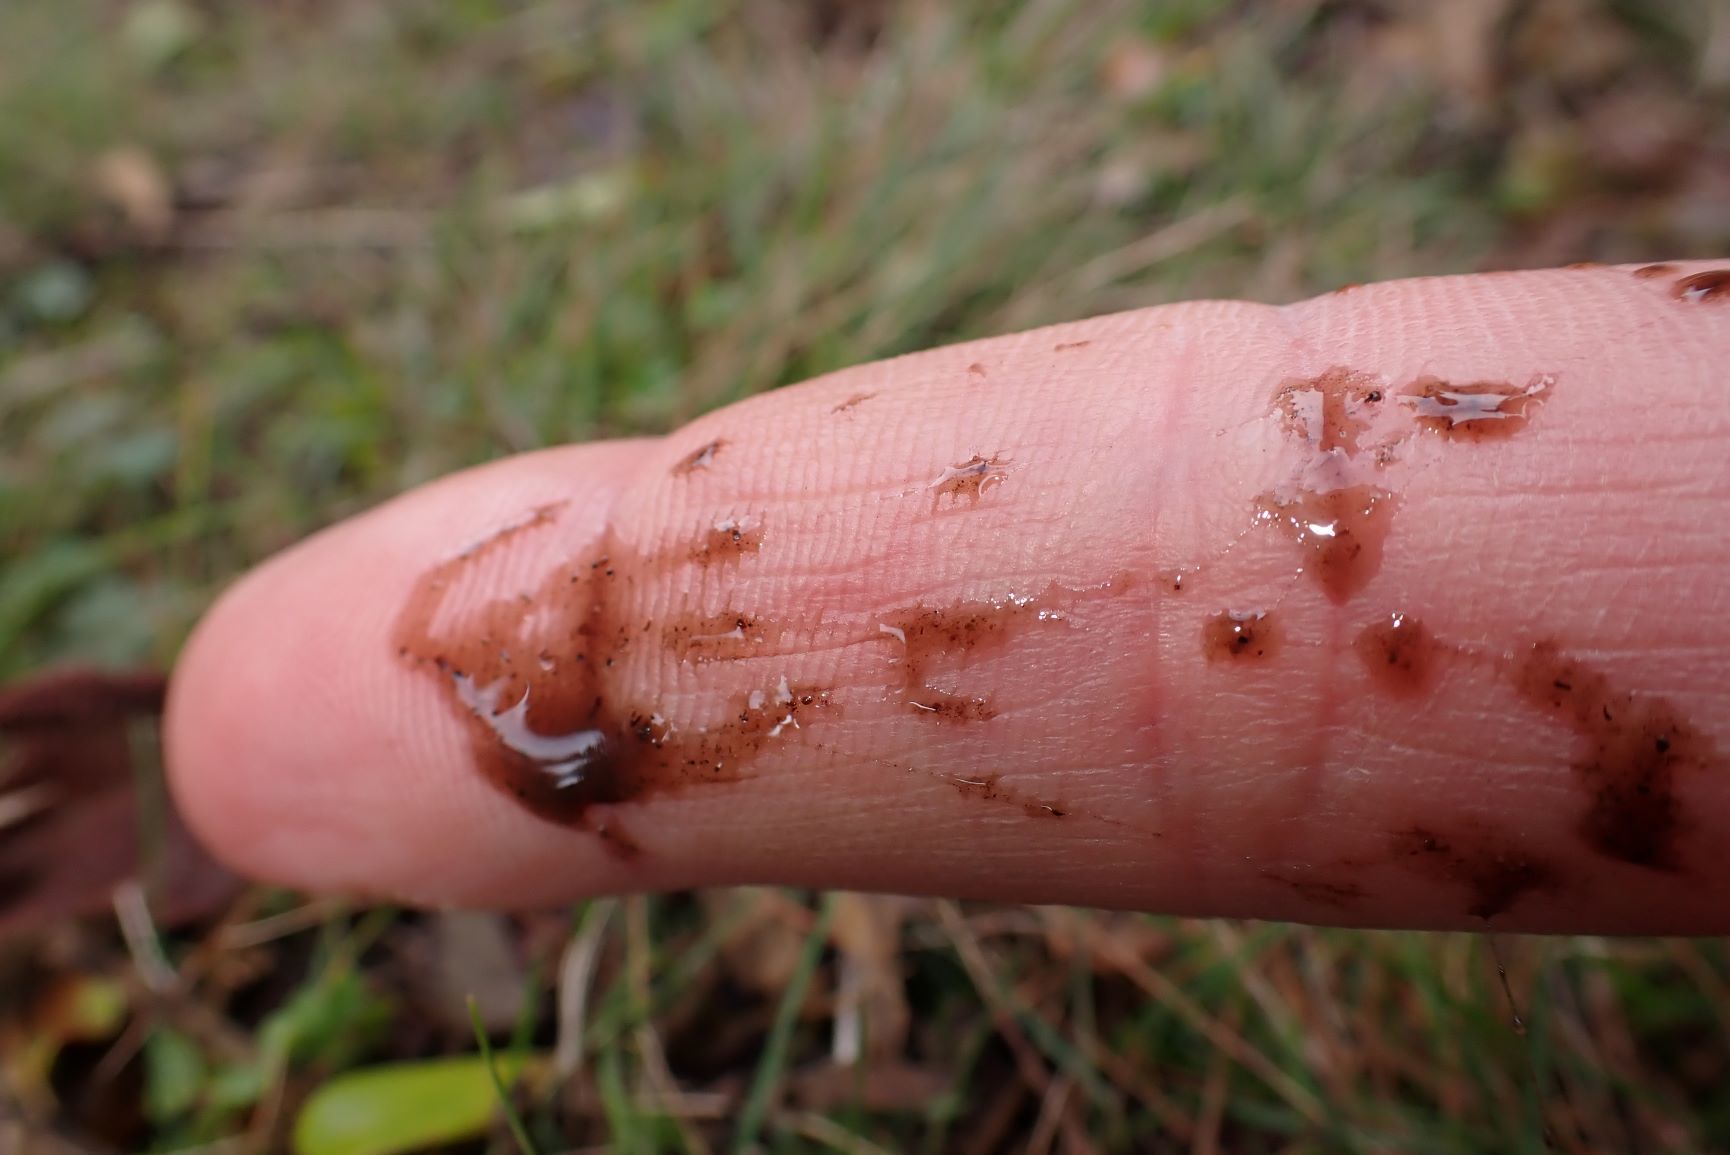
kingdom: Animalia
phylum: Arthropoda
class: Insecta
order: Orthoptera
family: Gryllotalpidae
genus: Gryllotalpa
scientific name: Gryllotalpa australis
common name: Southern mole cricket
